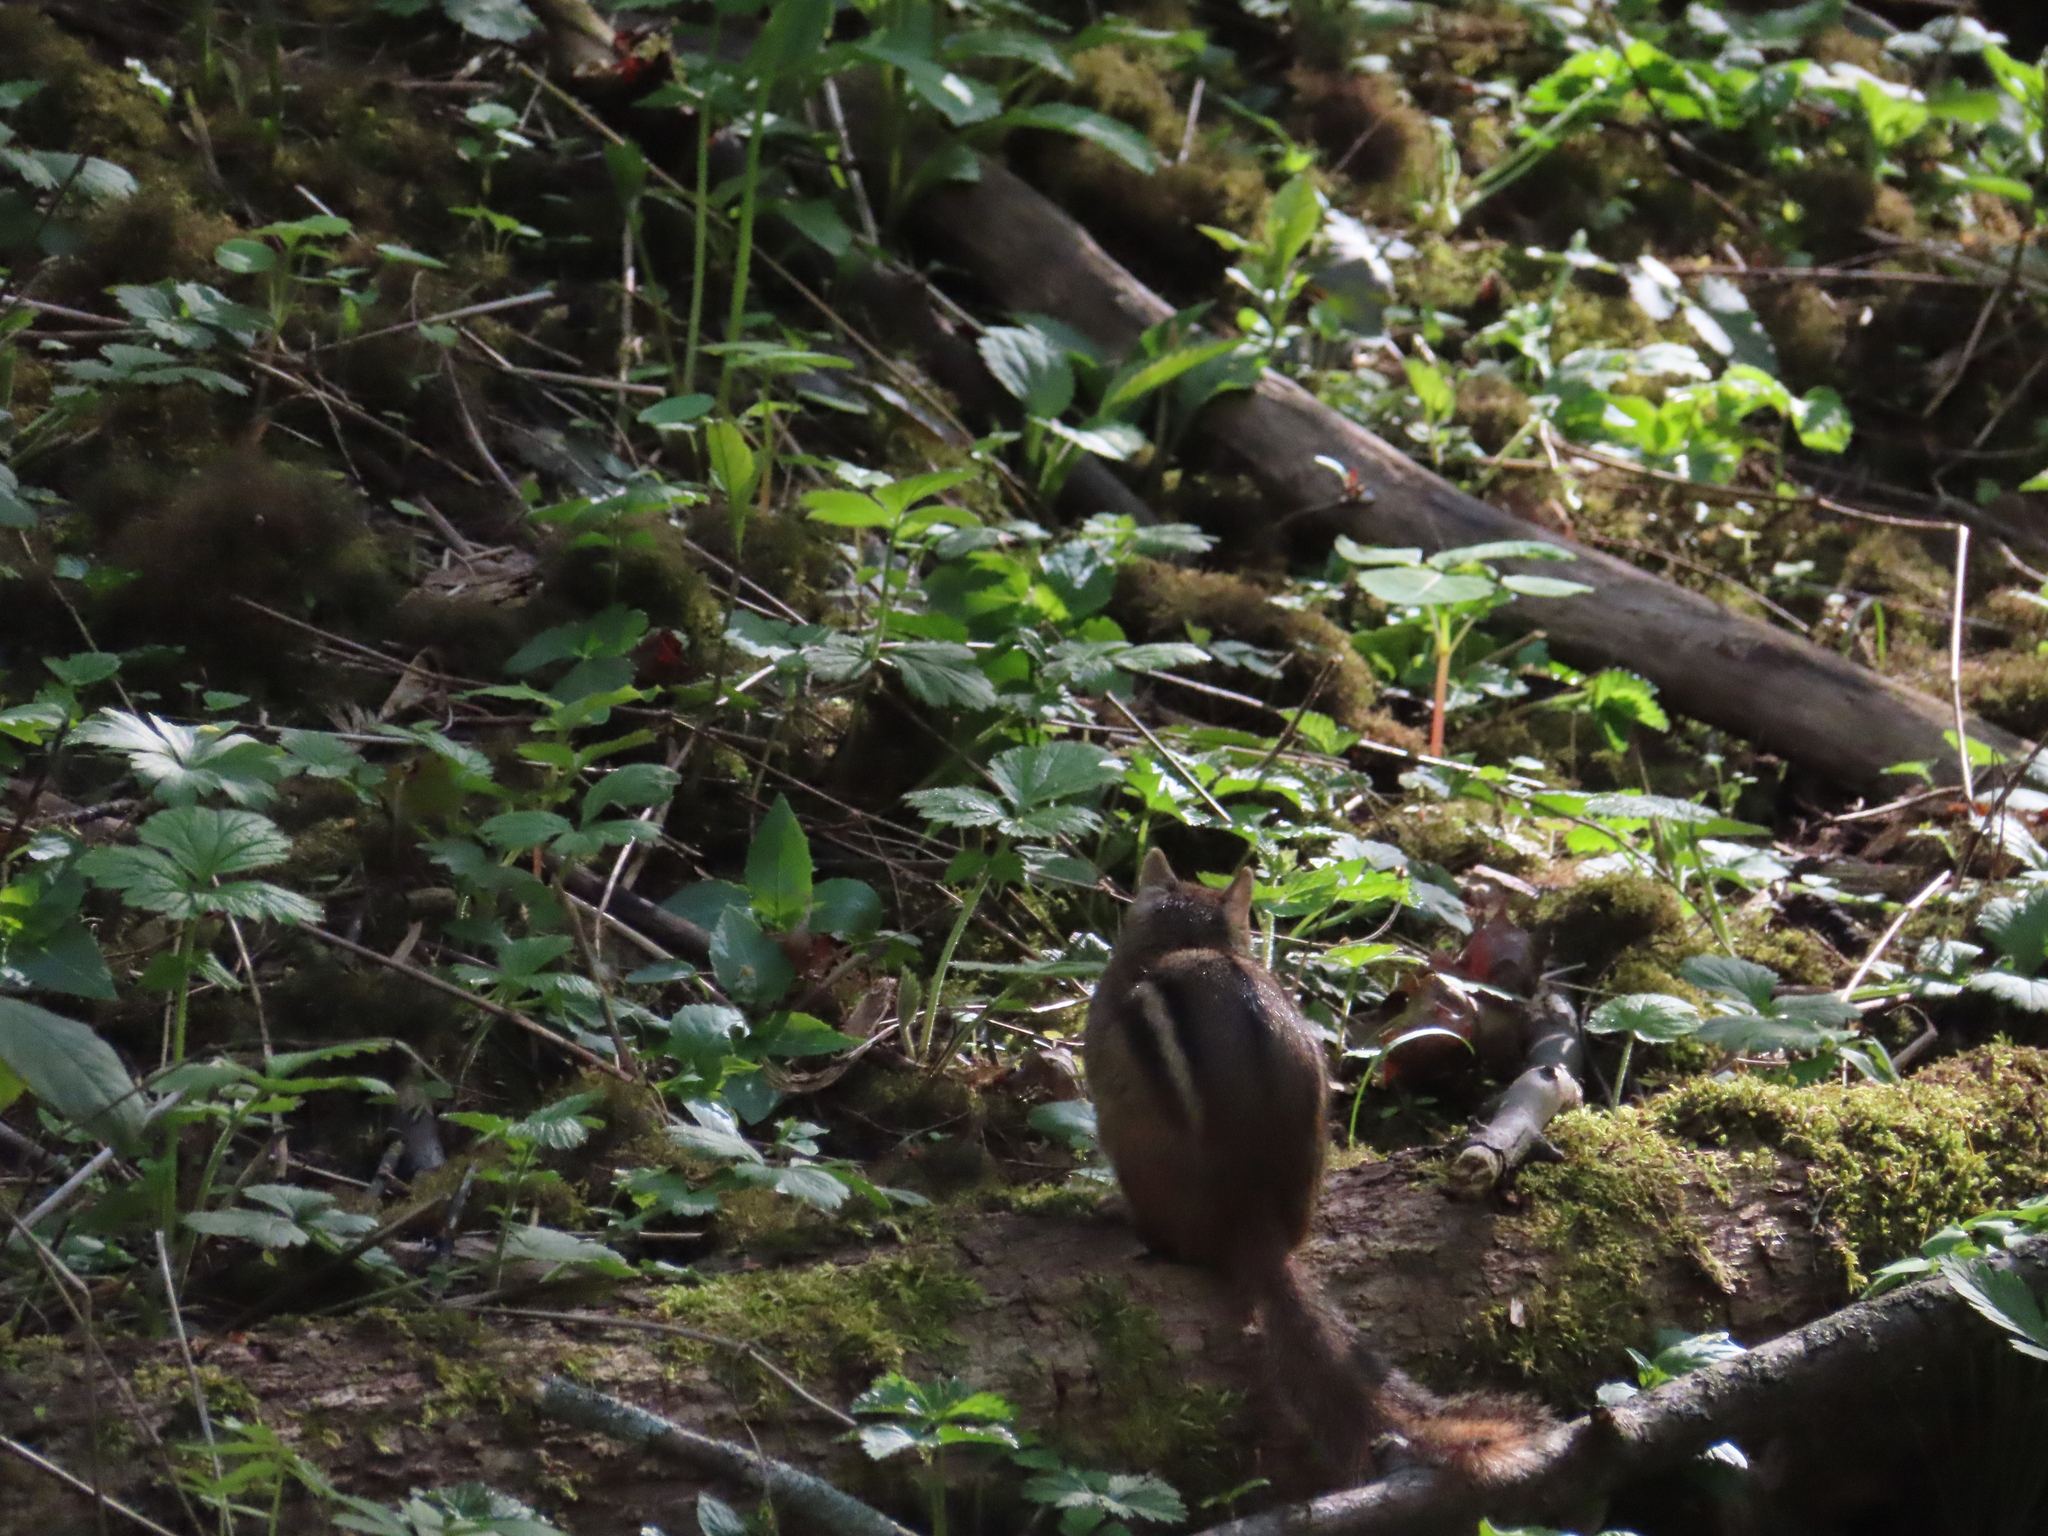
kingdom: Animalia
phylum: Chordata
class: Mammalia
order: Rodentia
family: Sciuridae
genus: Tamias
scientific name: Tamias striatus
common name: Eastern chipmunk
